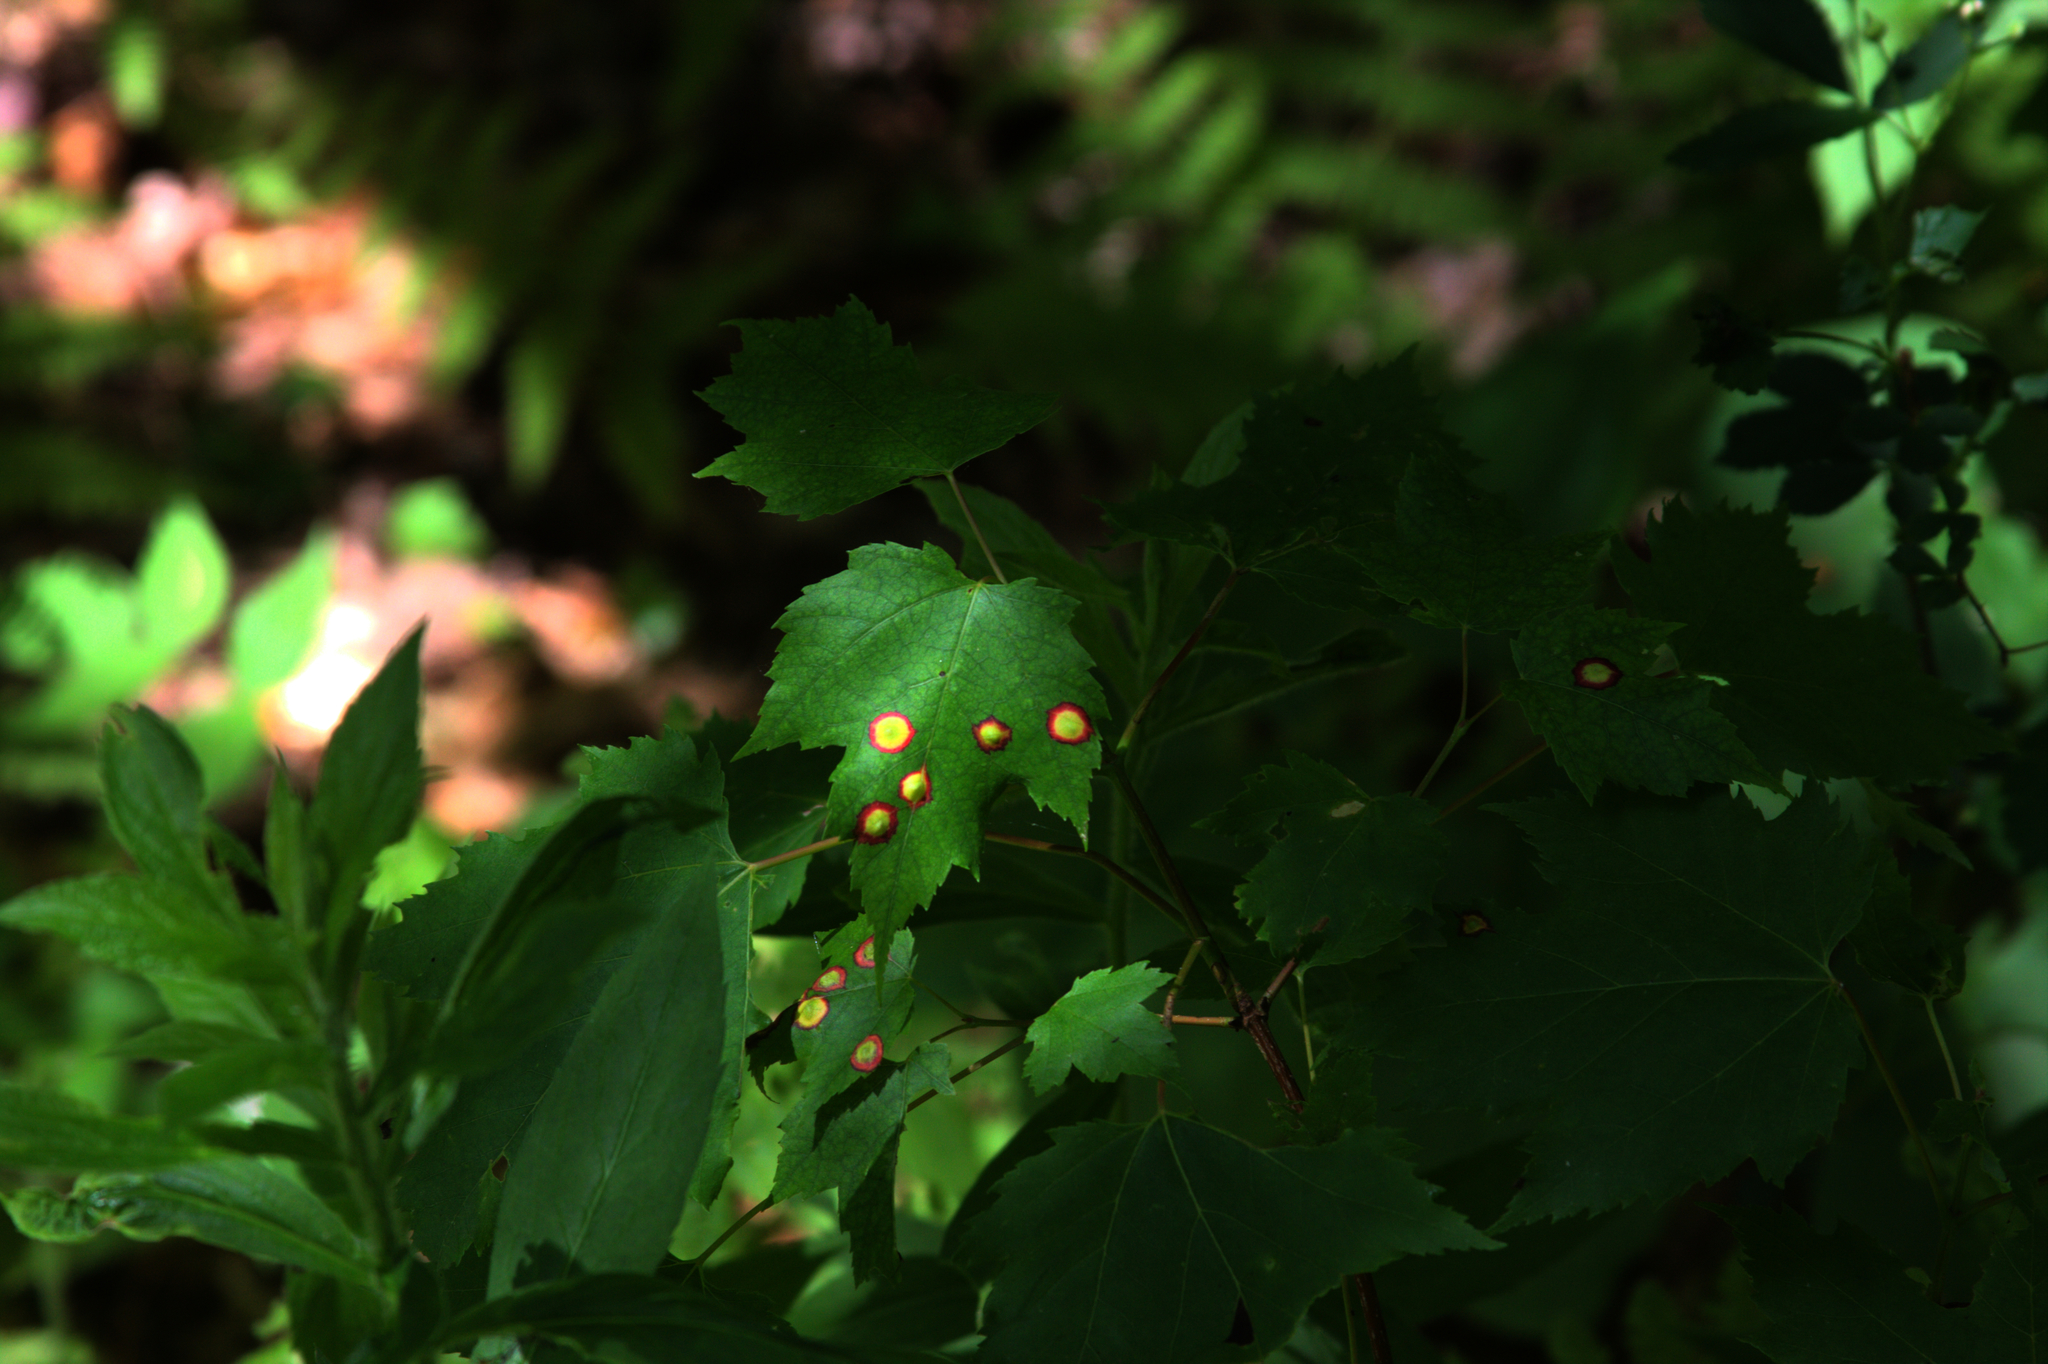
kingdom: Animalia
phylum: Arthropoda
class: Insecta
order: Diptera
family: Cecidomyiidae
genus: Acericecis
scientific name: Acericecis ocellaris
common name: Ocellate gall midge
